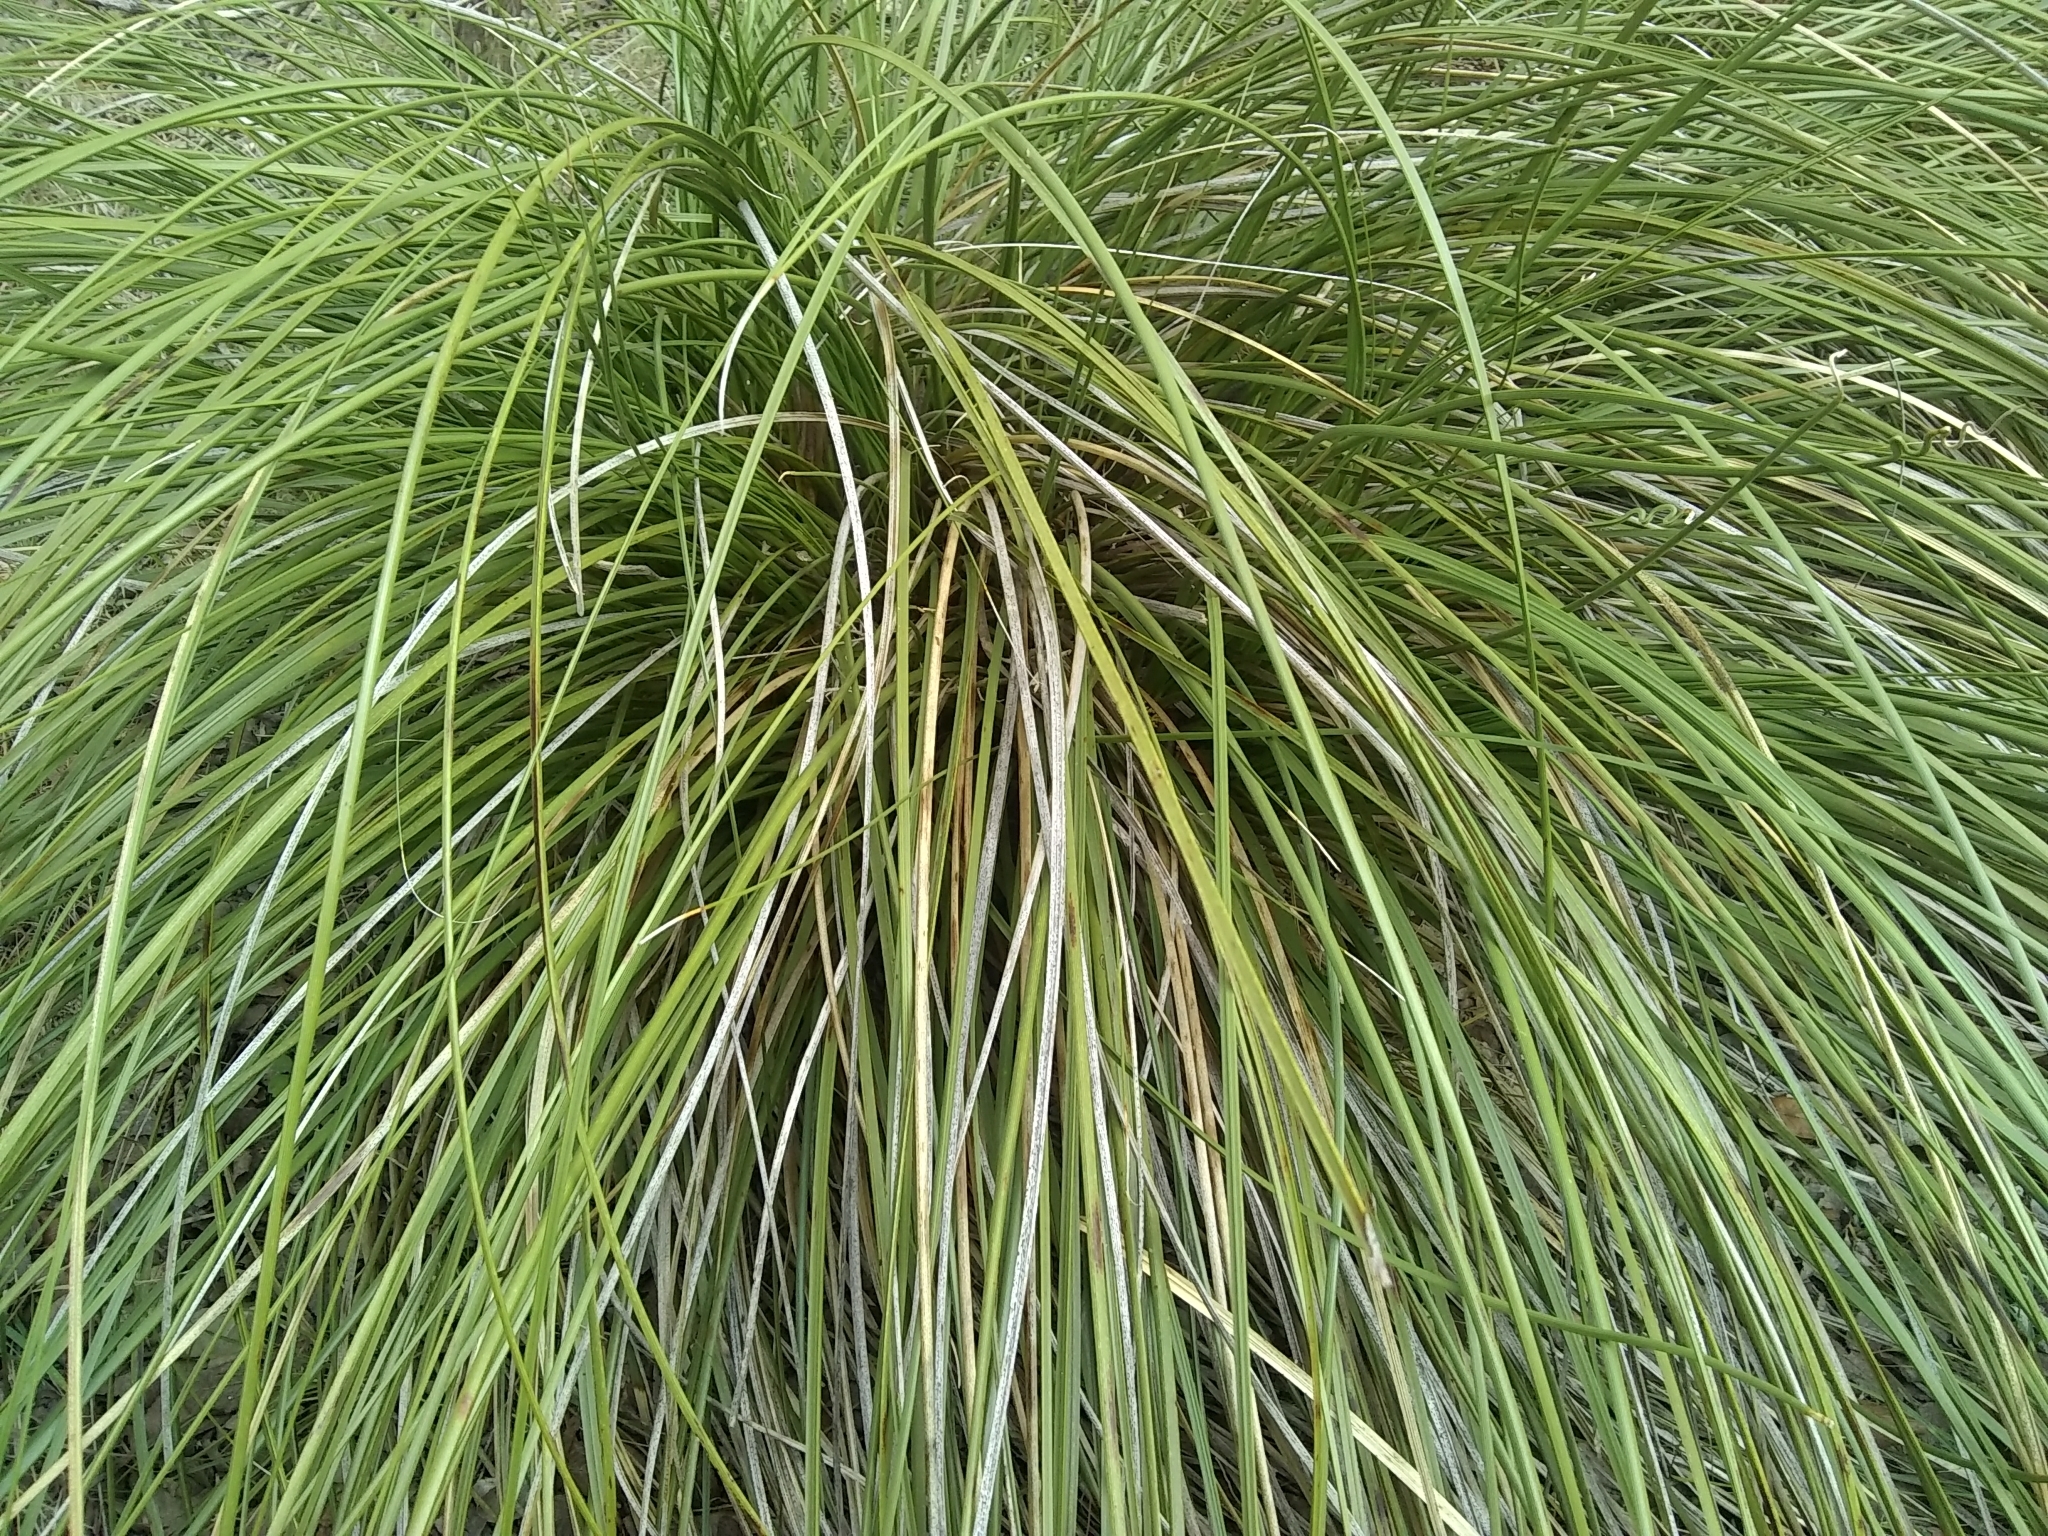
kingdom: Plantae
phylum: Tracheophyta
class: Liliopsida
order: Asparagales
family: Asparagaceae
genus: Nolina
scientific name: Nolina texana
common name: Texas sacahuiste
